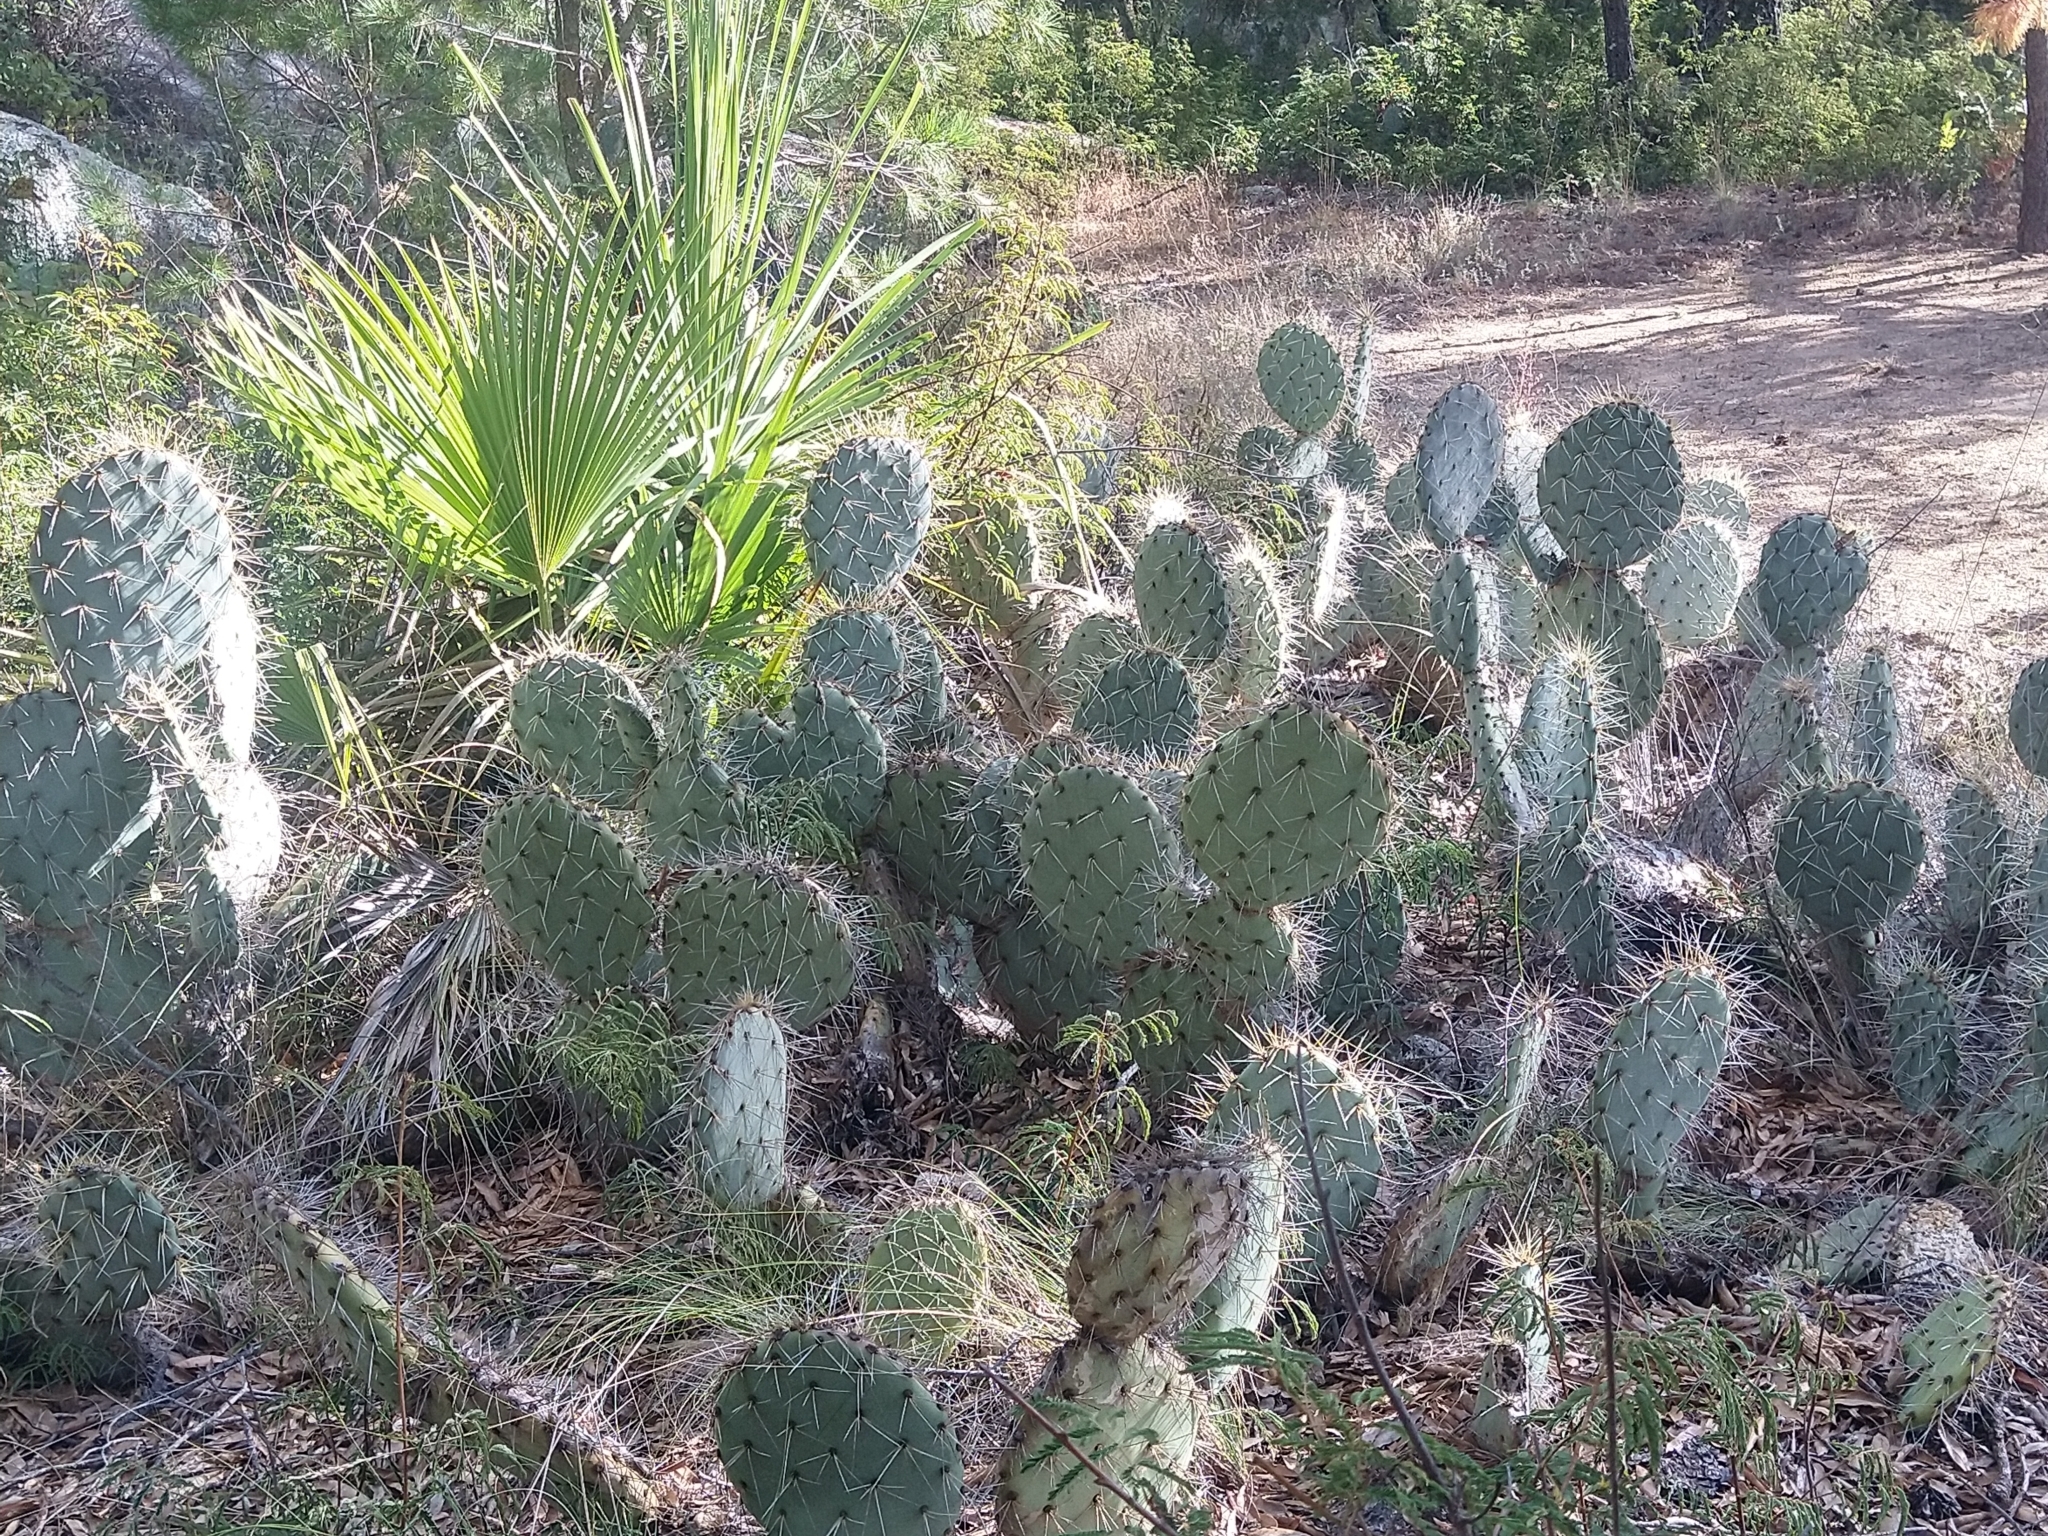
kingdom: Plantae
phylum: Tracheophyta
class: Magnoliopsida
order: Caryophyllales
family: Cactaceae
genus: Opuntia
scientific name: Opuntia lagunae
